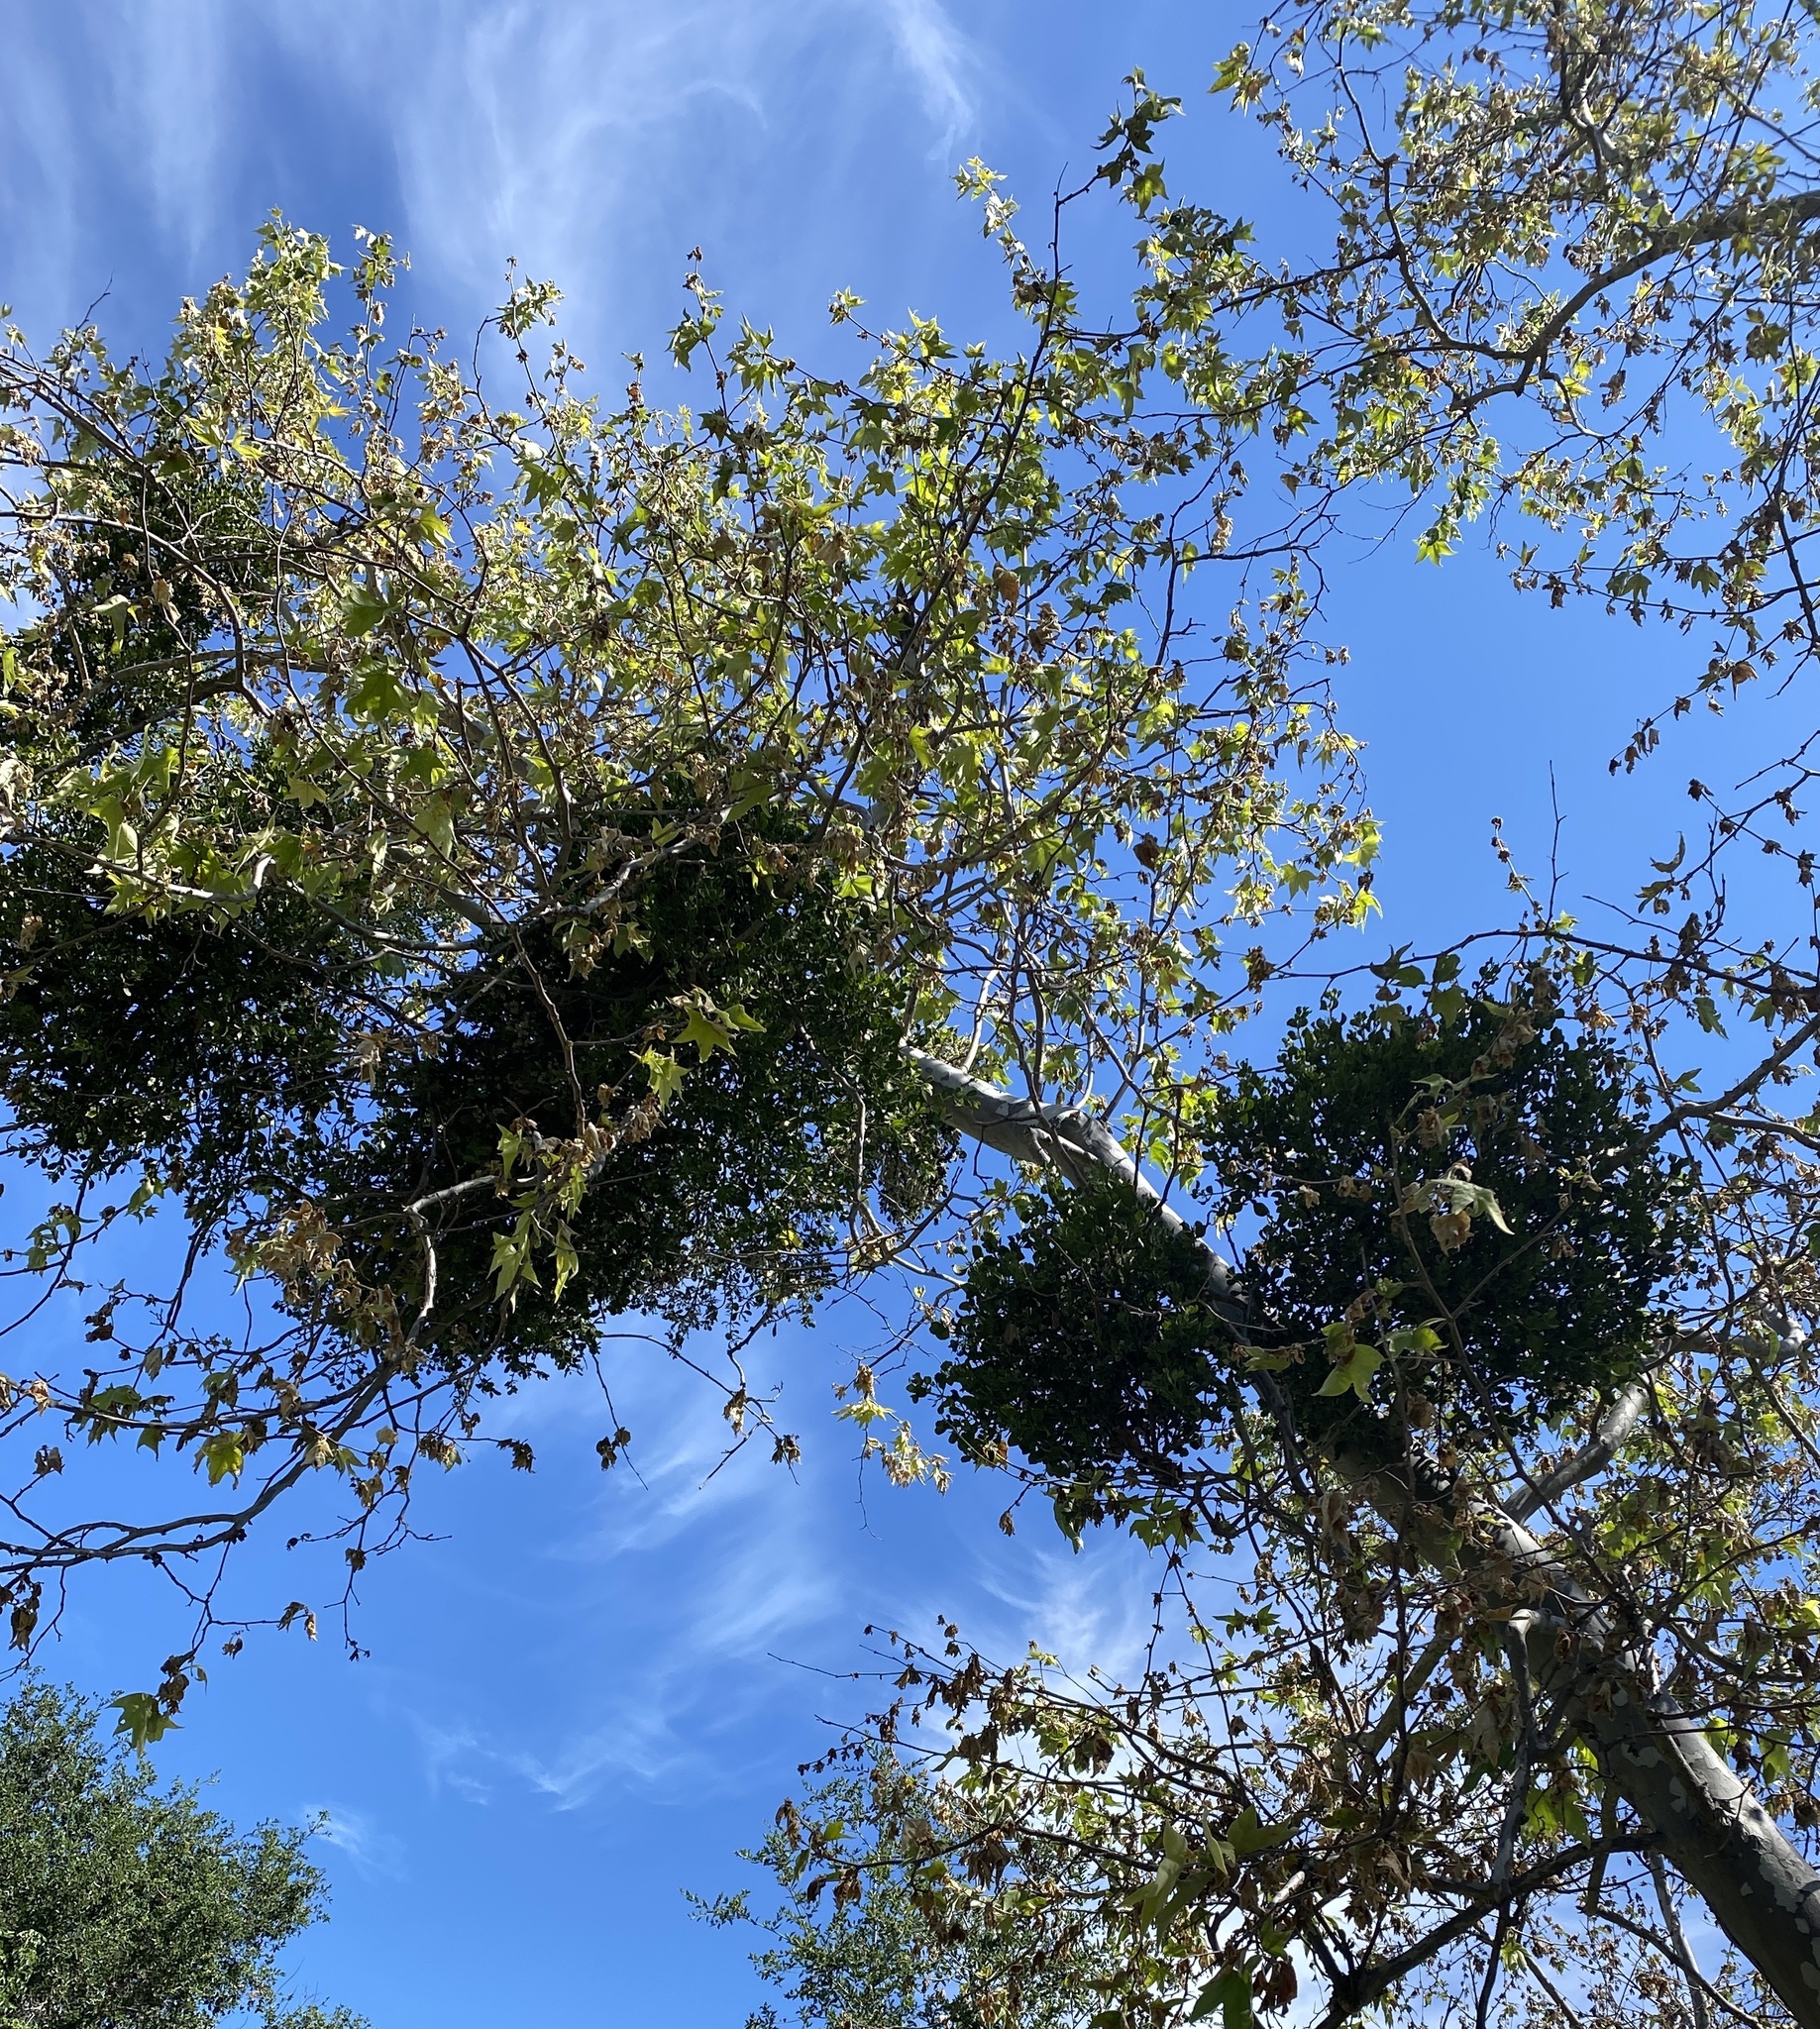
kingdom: Plantae
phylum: Tracheophyta
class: Magnoliopsida
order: Santalales
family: Viscaceae
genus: Phoradendron
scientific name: Phoradendron
